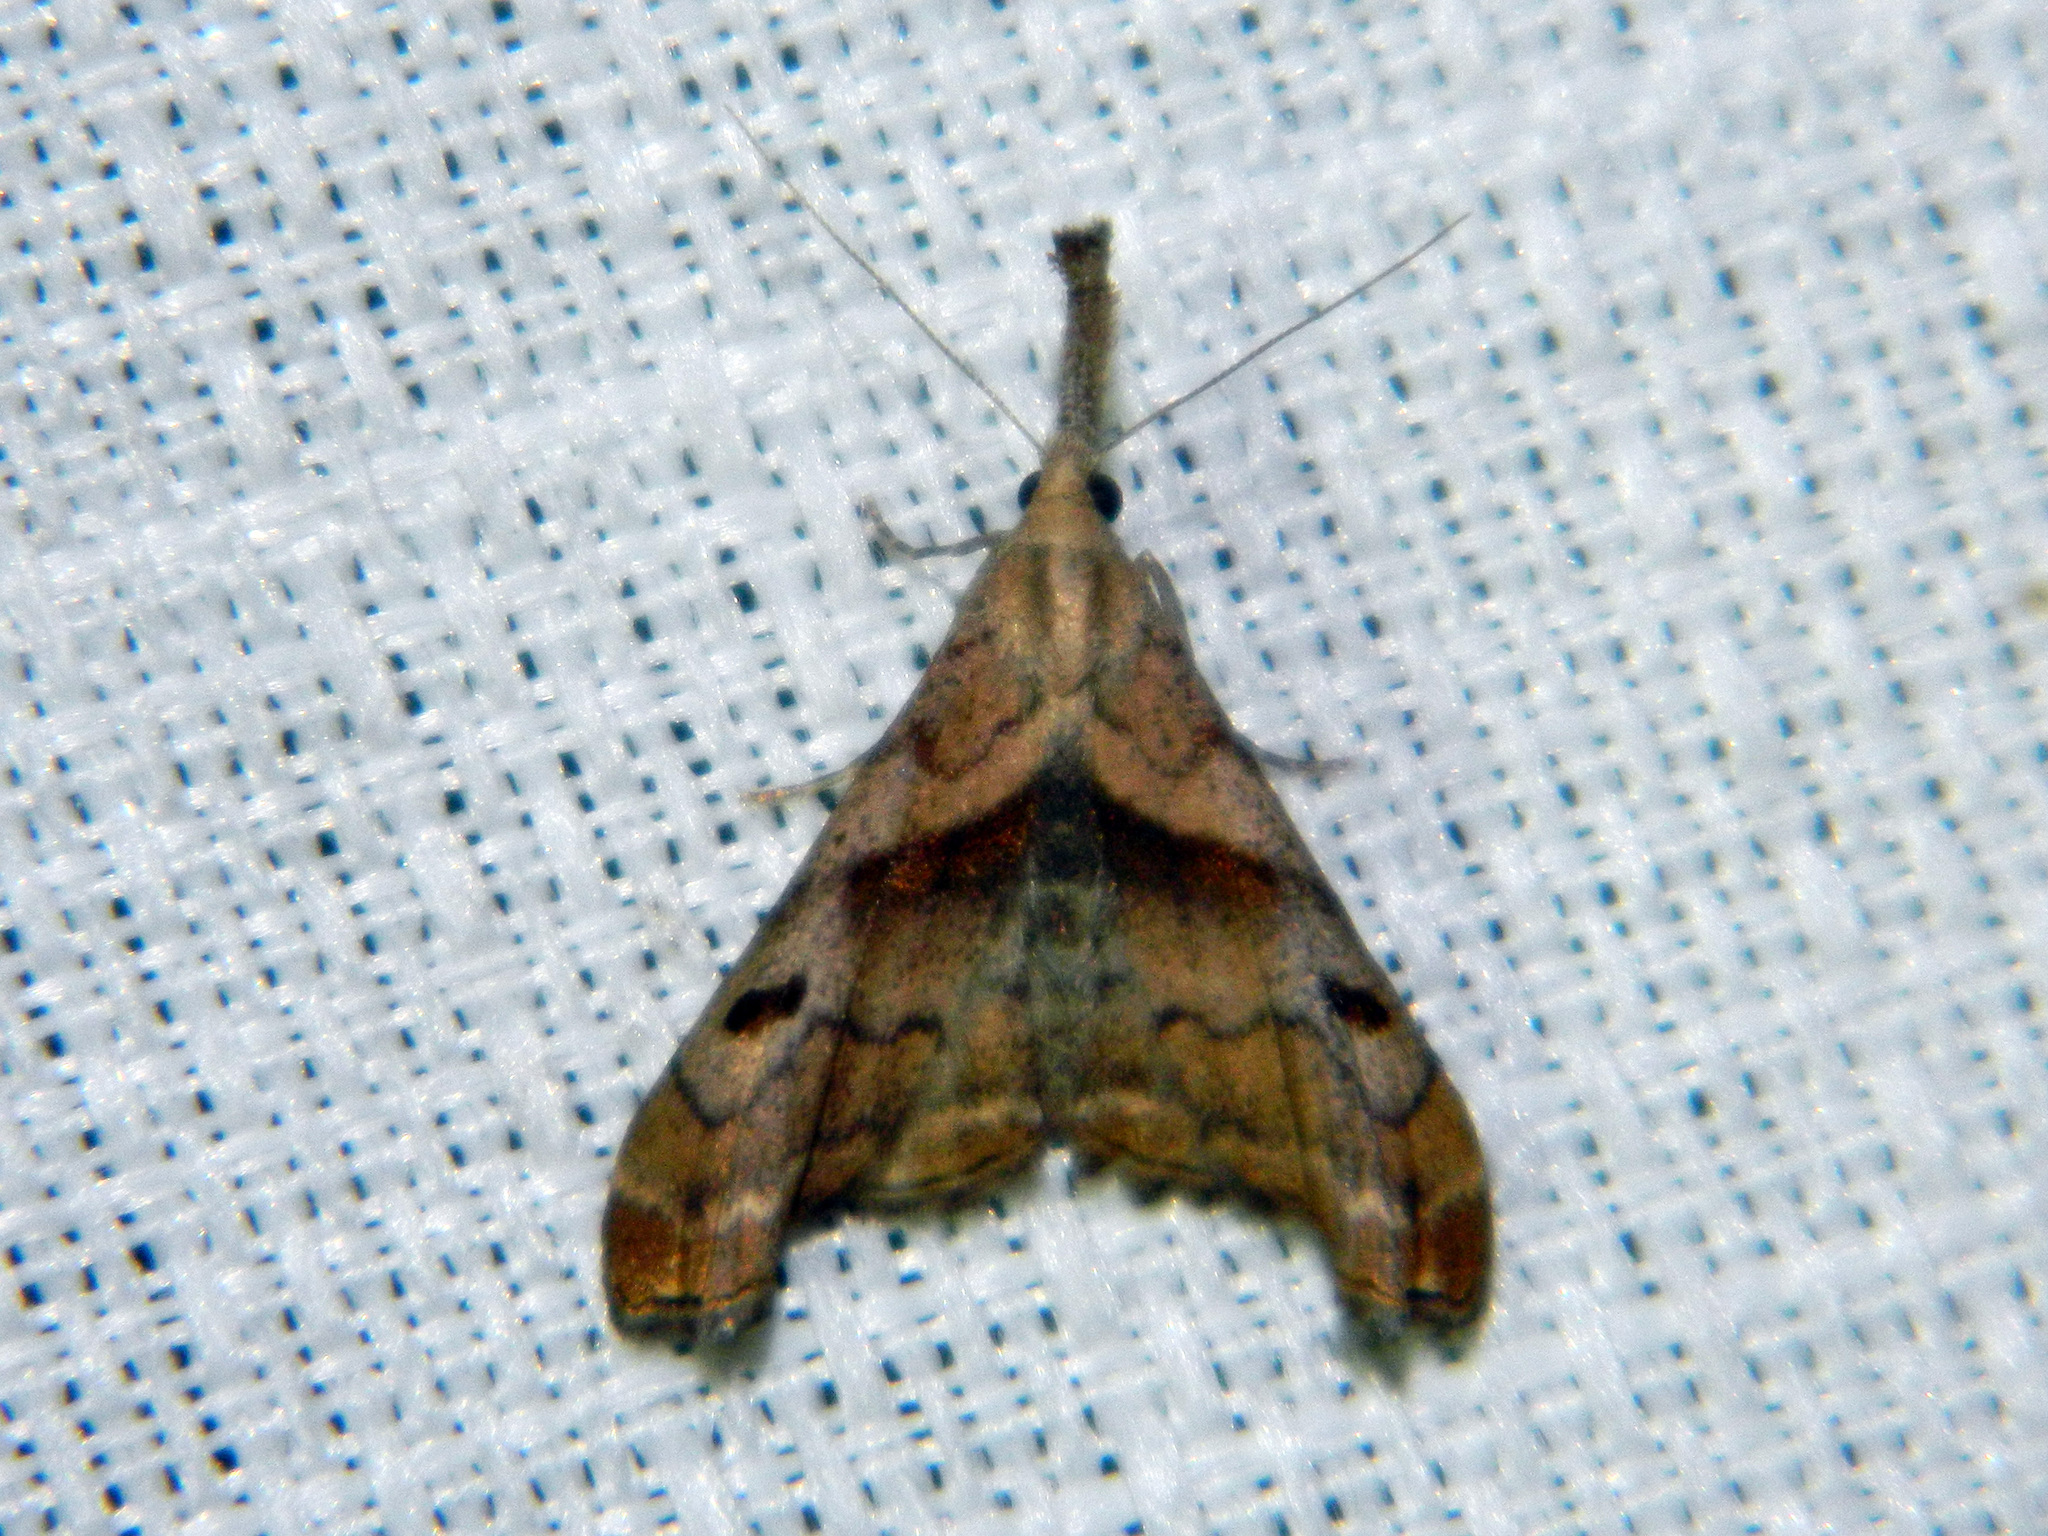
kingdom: Animalia
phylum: Arthropoda
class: Insecta
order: Lepidoptera
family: Erebidae
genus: Palthis
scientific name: Palthis angulalis
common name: Dark-spotted palthis moth
